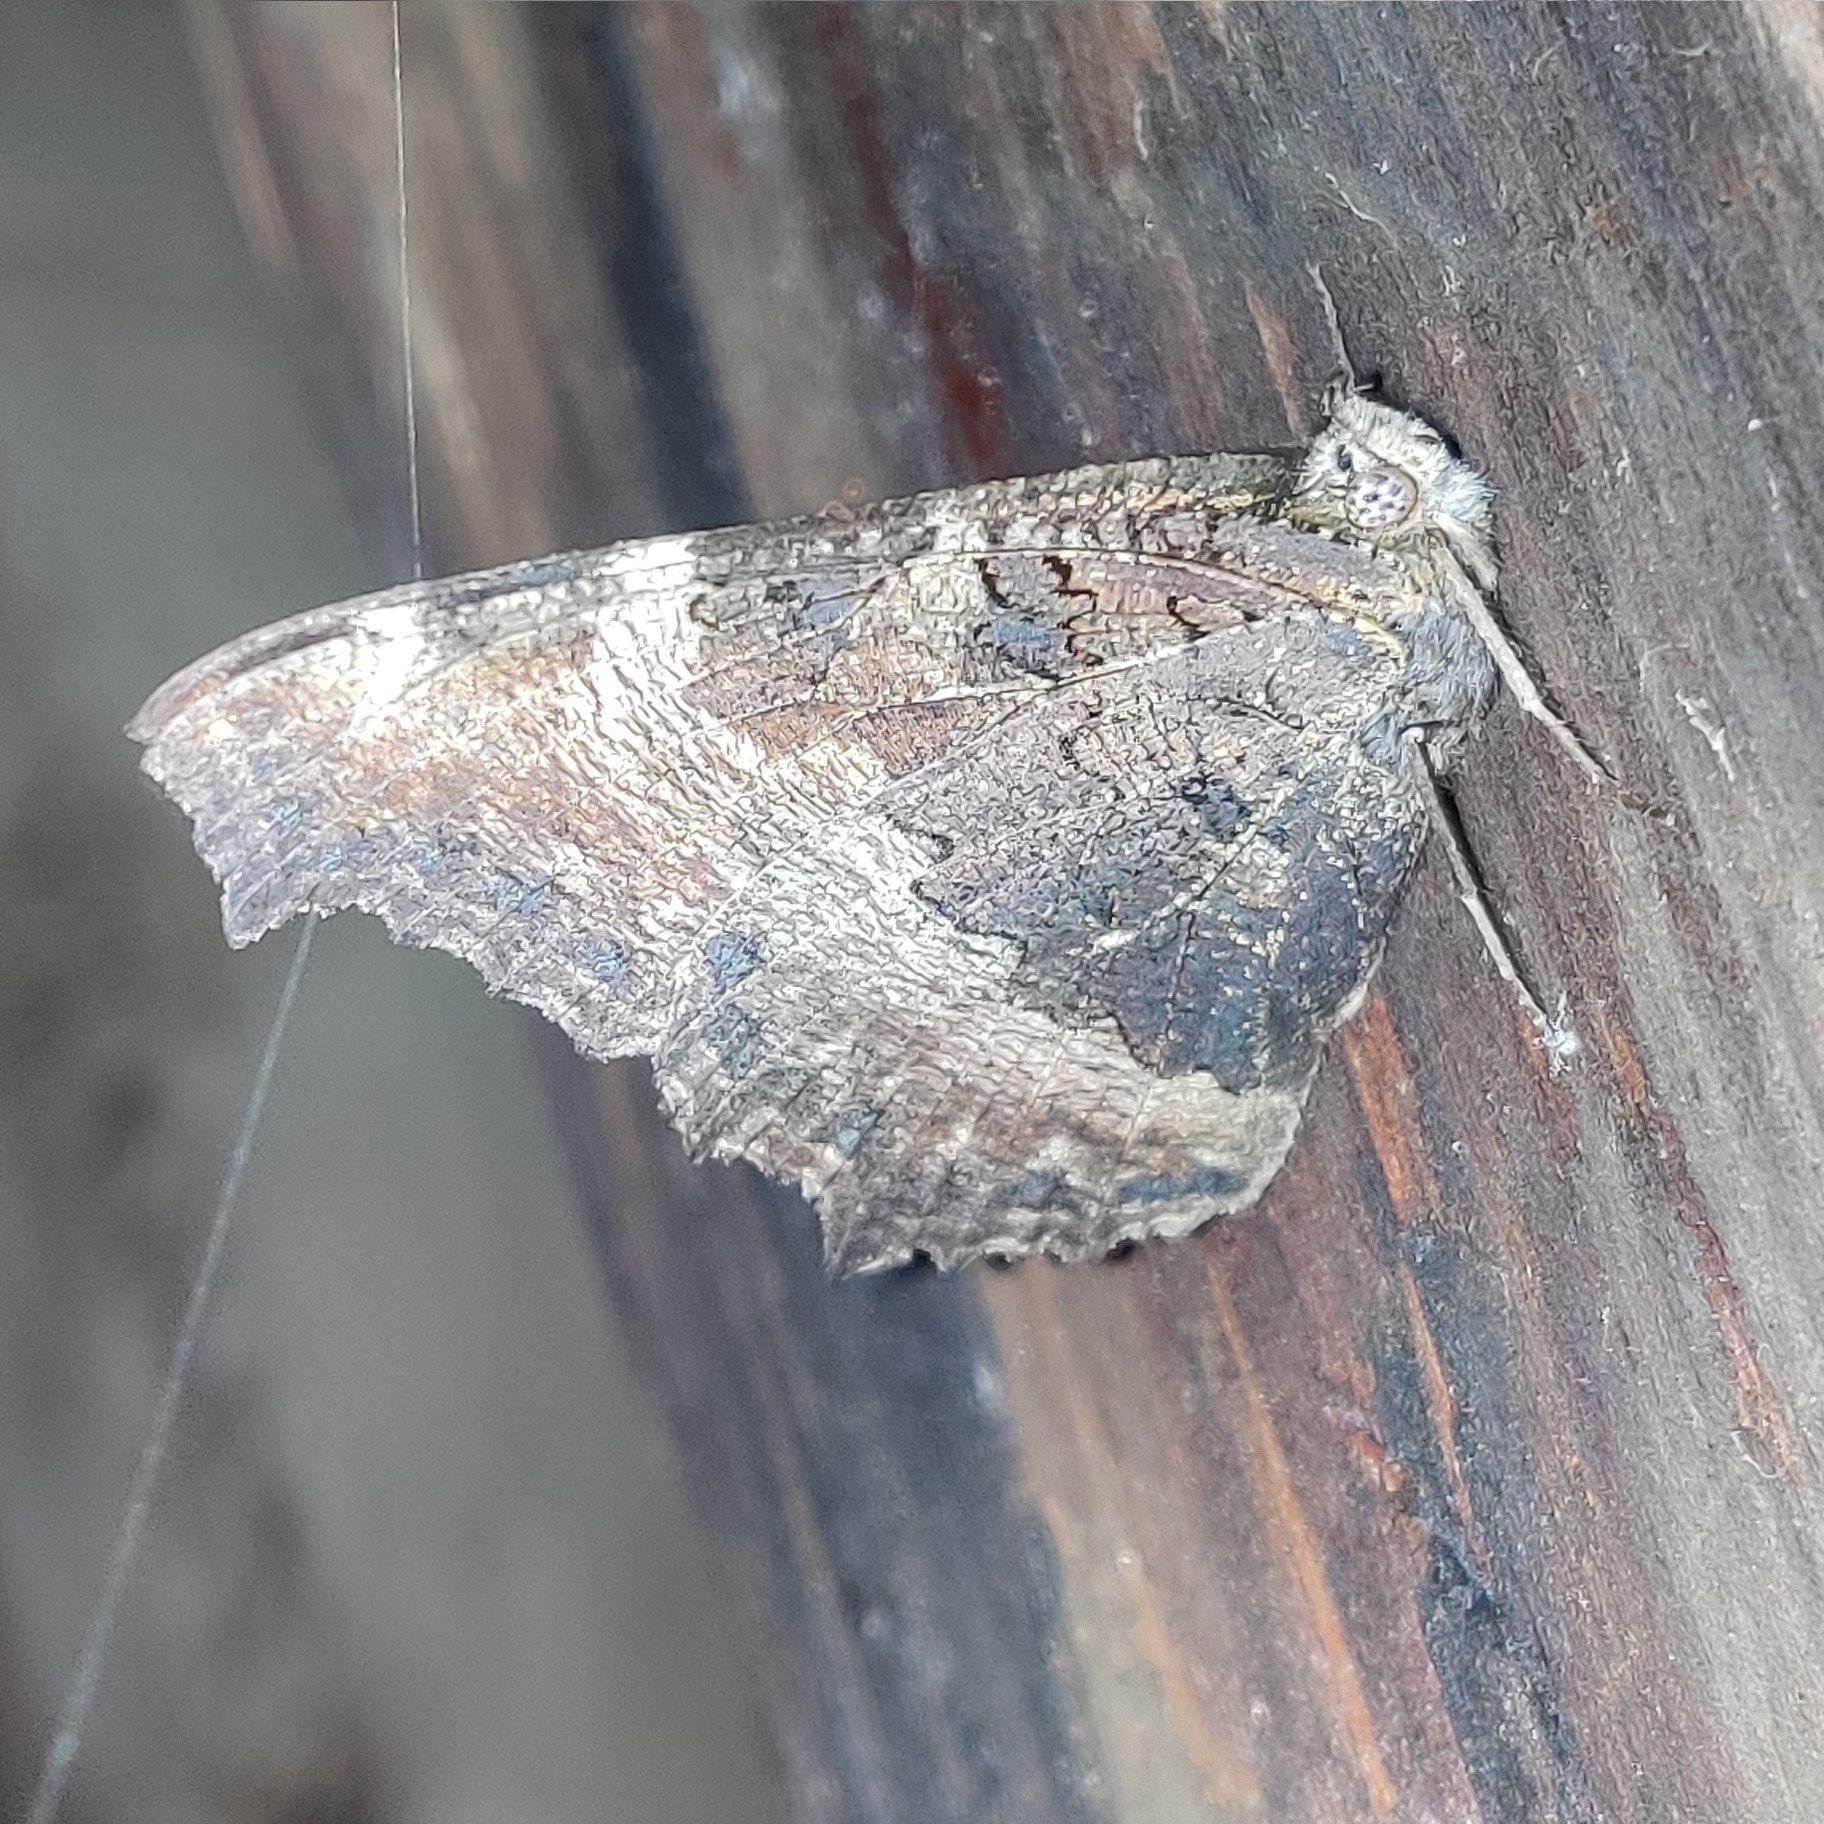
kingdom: Animalia
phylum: Arthropoda
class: Insecta
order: Lepidoptera
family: Nymphalidae
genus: Aglais
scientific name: Aglais caschmirensis
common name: Indian tortoiseshell
